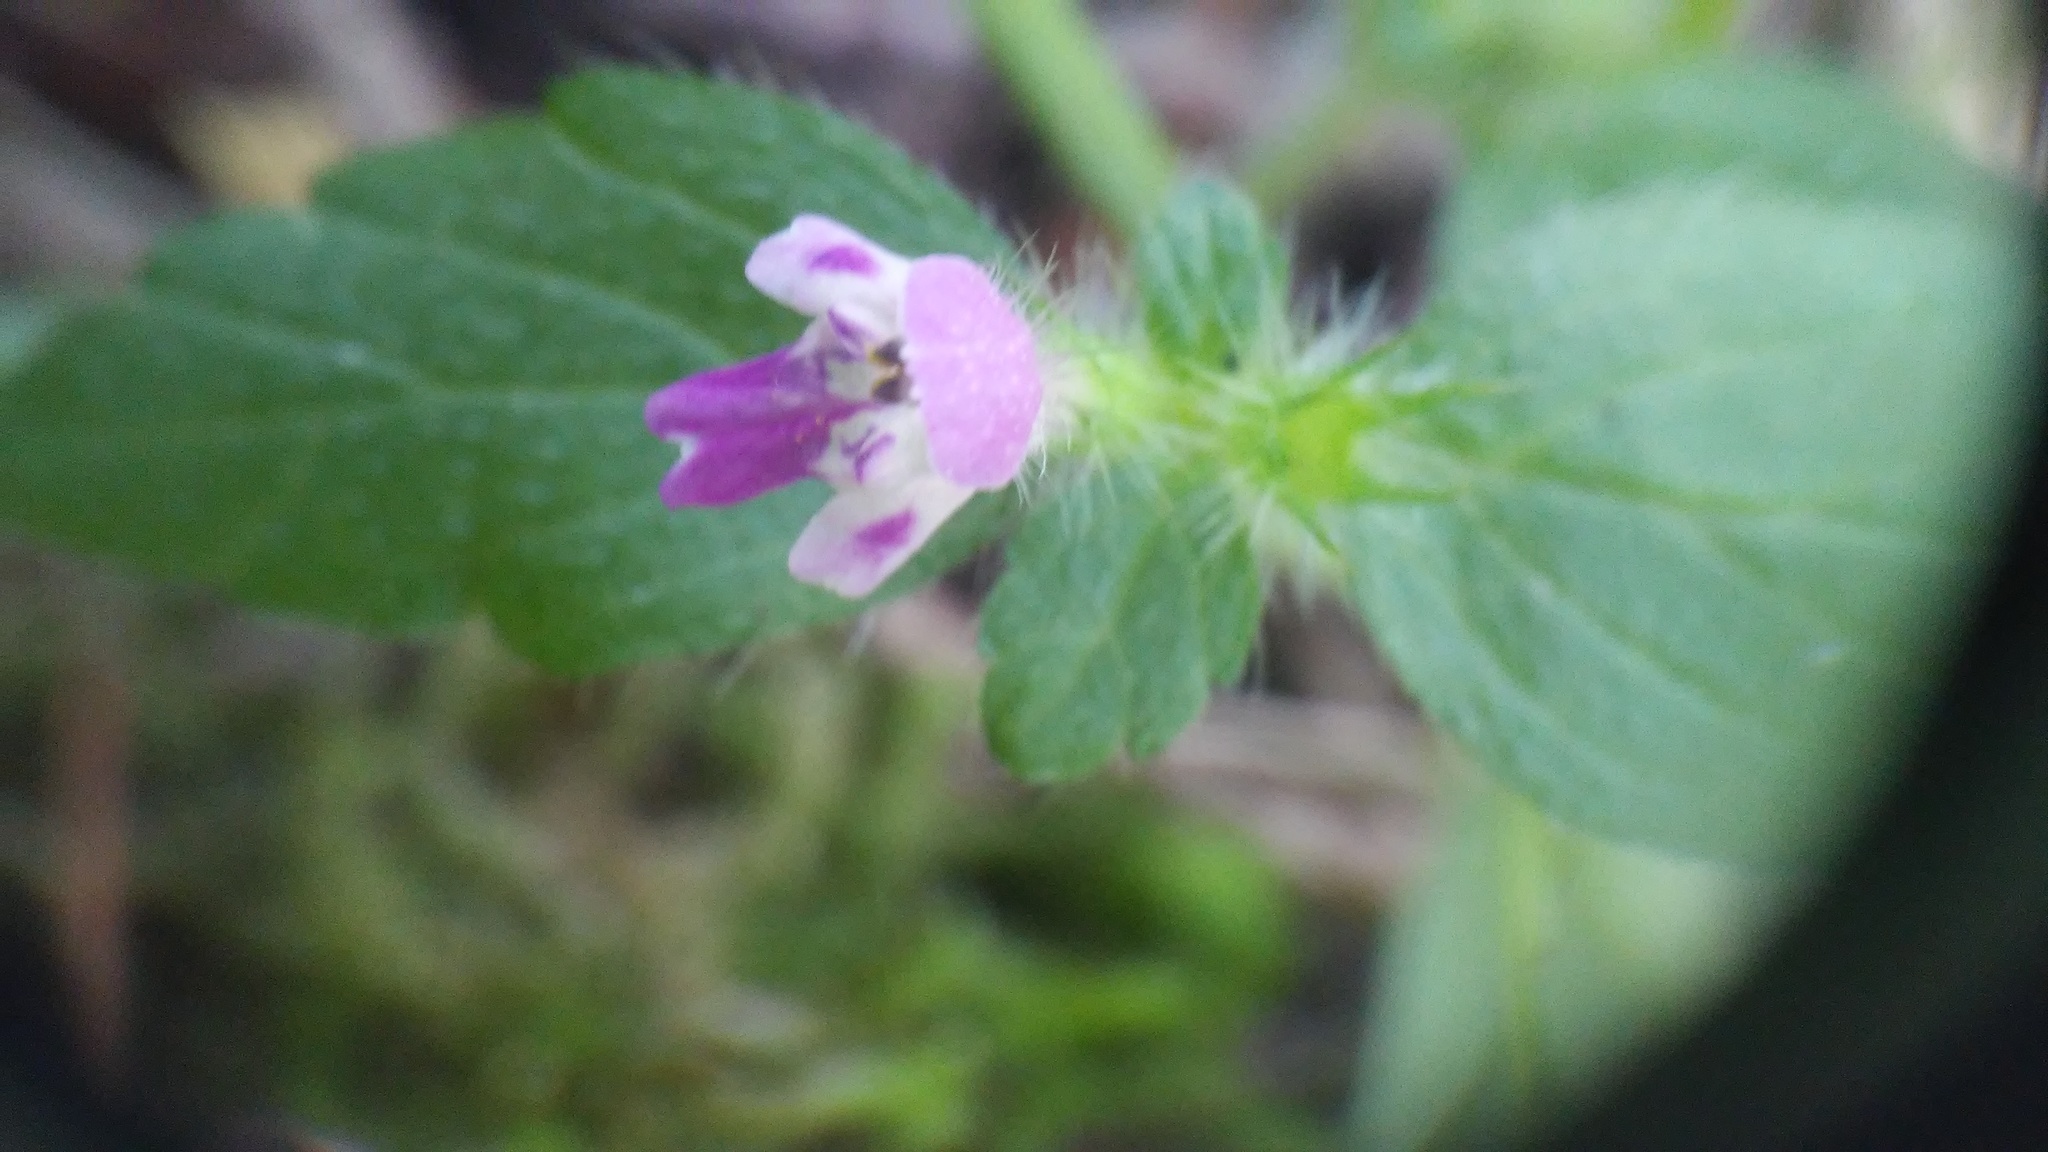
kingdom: Plantae
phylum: Tracheophyta
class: Magnoliopsida
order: Lamiales
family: Lamiaceae
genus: Galeopsis
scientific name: Galeopsis bifida
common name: Bifid hemp-nettle
